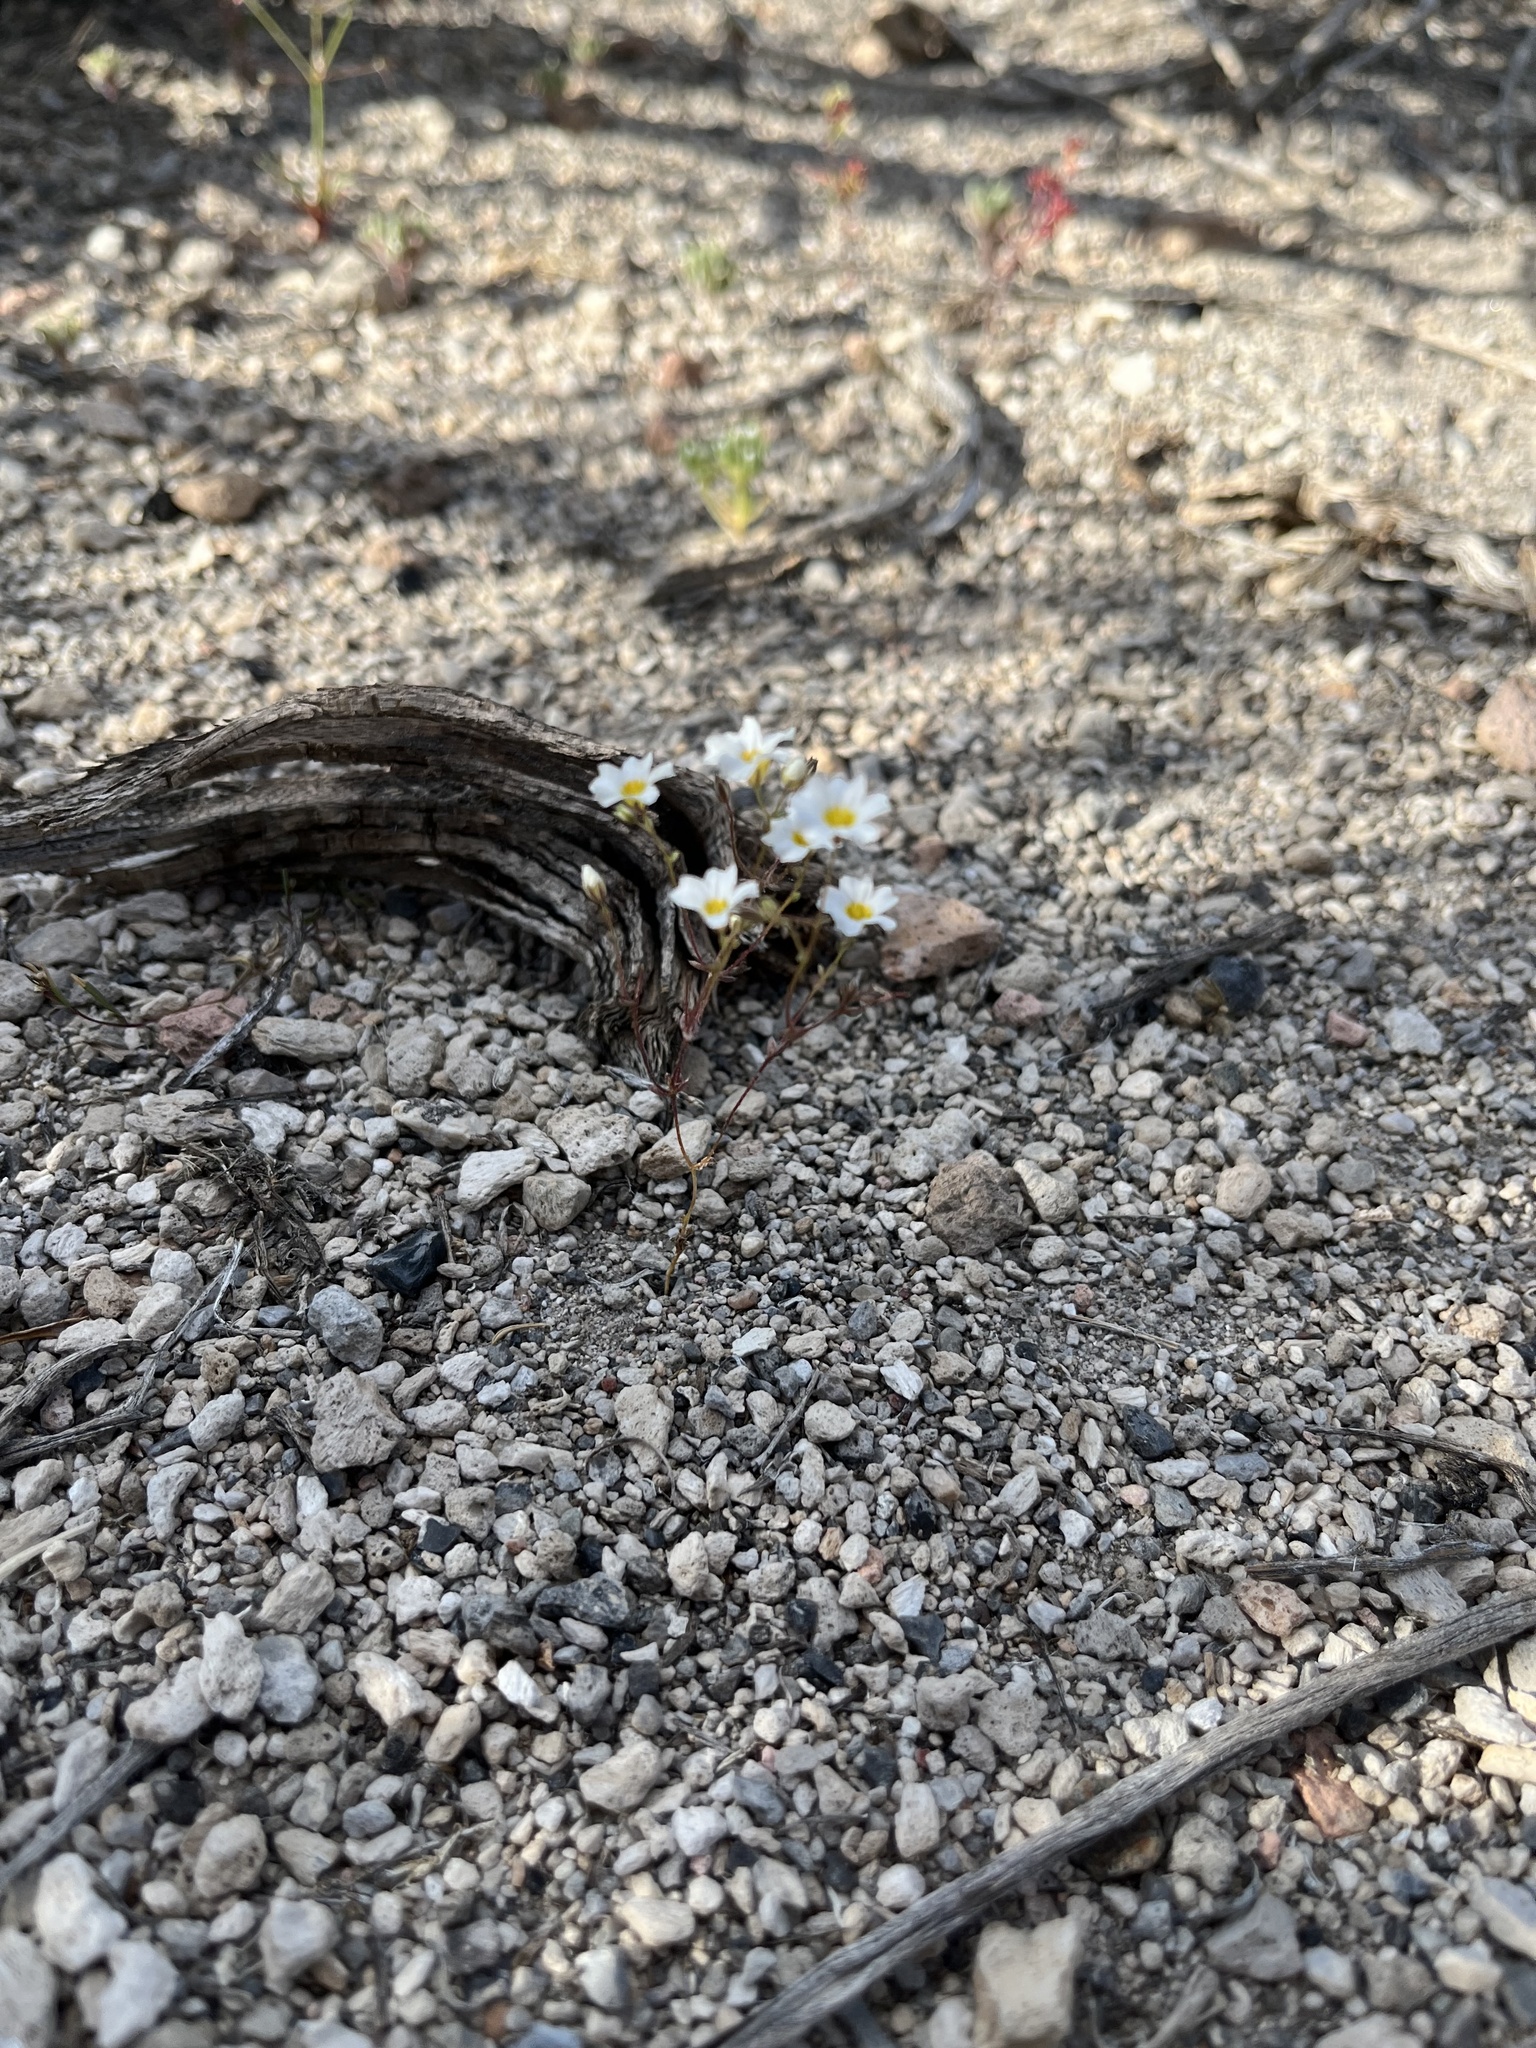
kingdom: Plantae
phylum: Tracheophyta
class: Magnoliopsida
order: Ericales
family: Polemoniaceae
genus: Linanthus
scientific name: Linanthus inyoensis
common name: Inyo gilia
